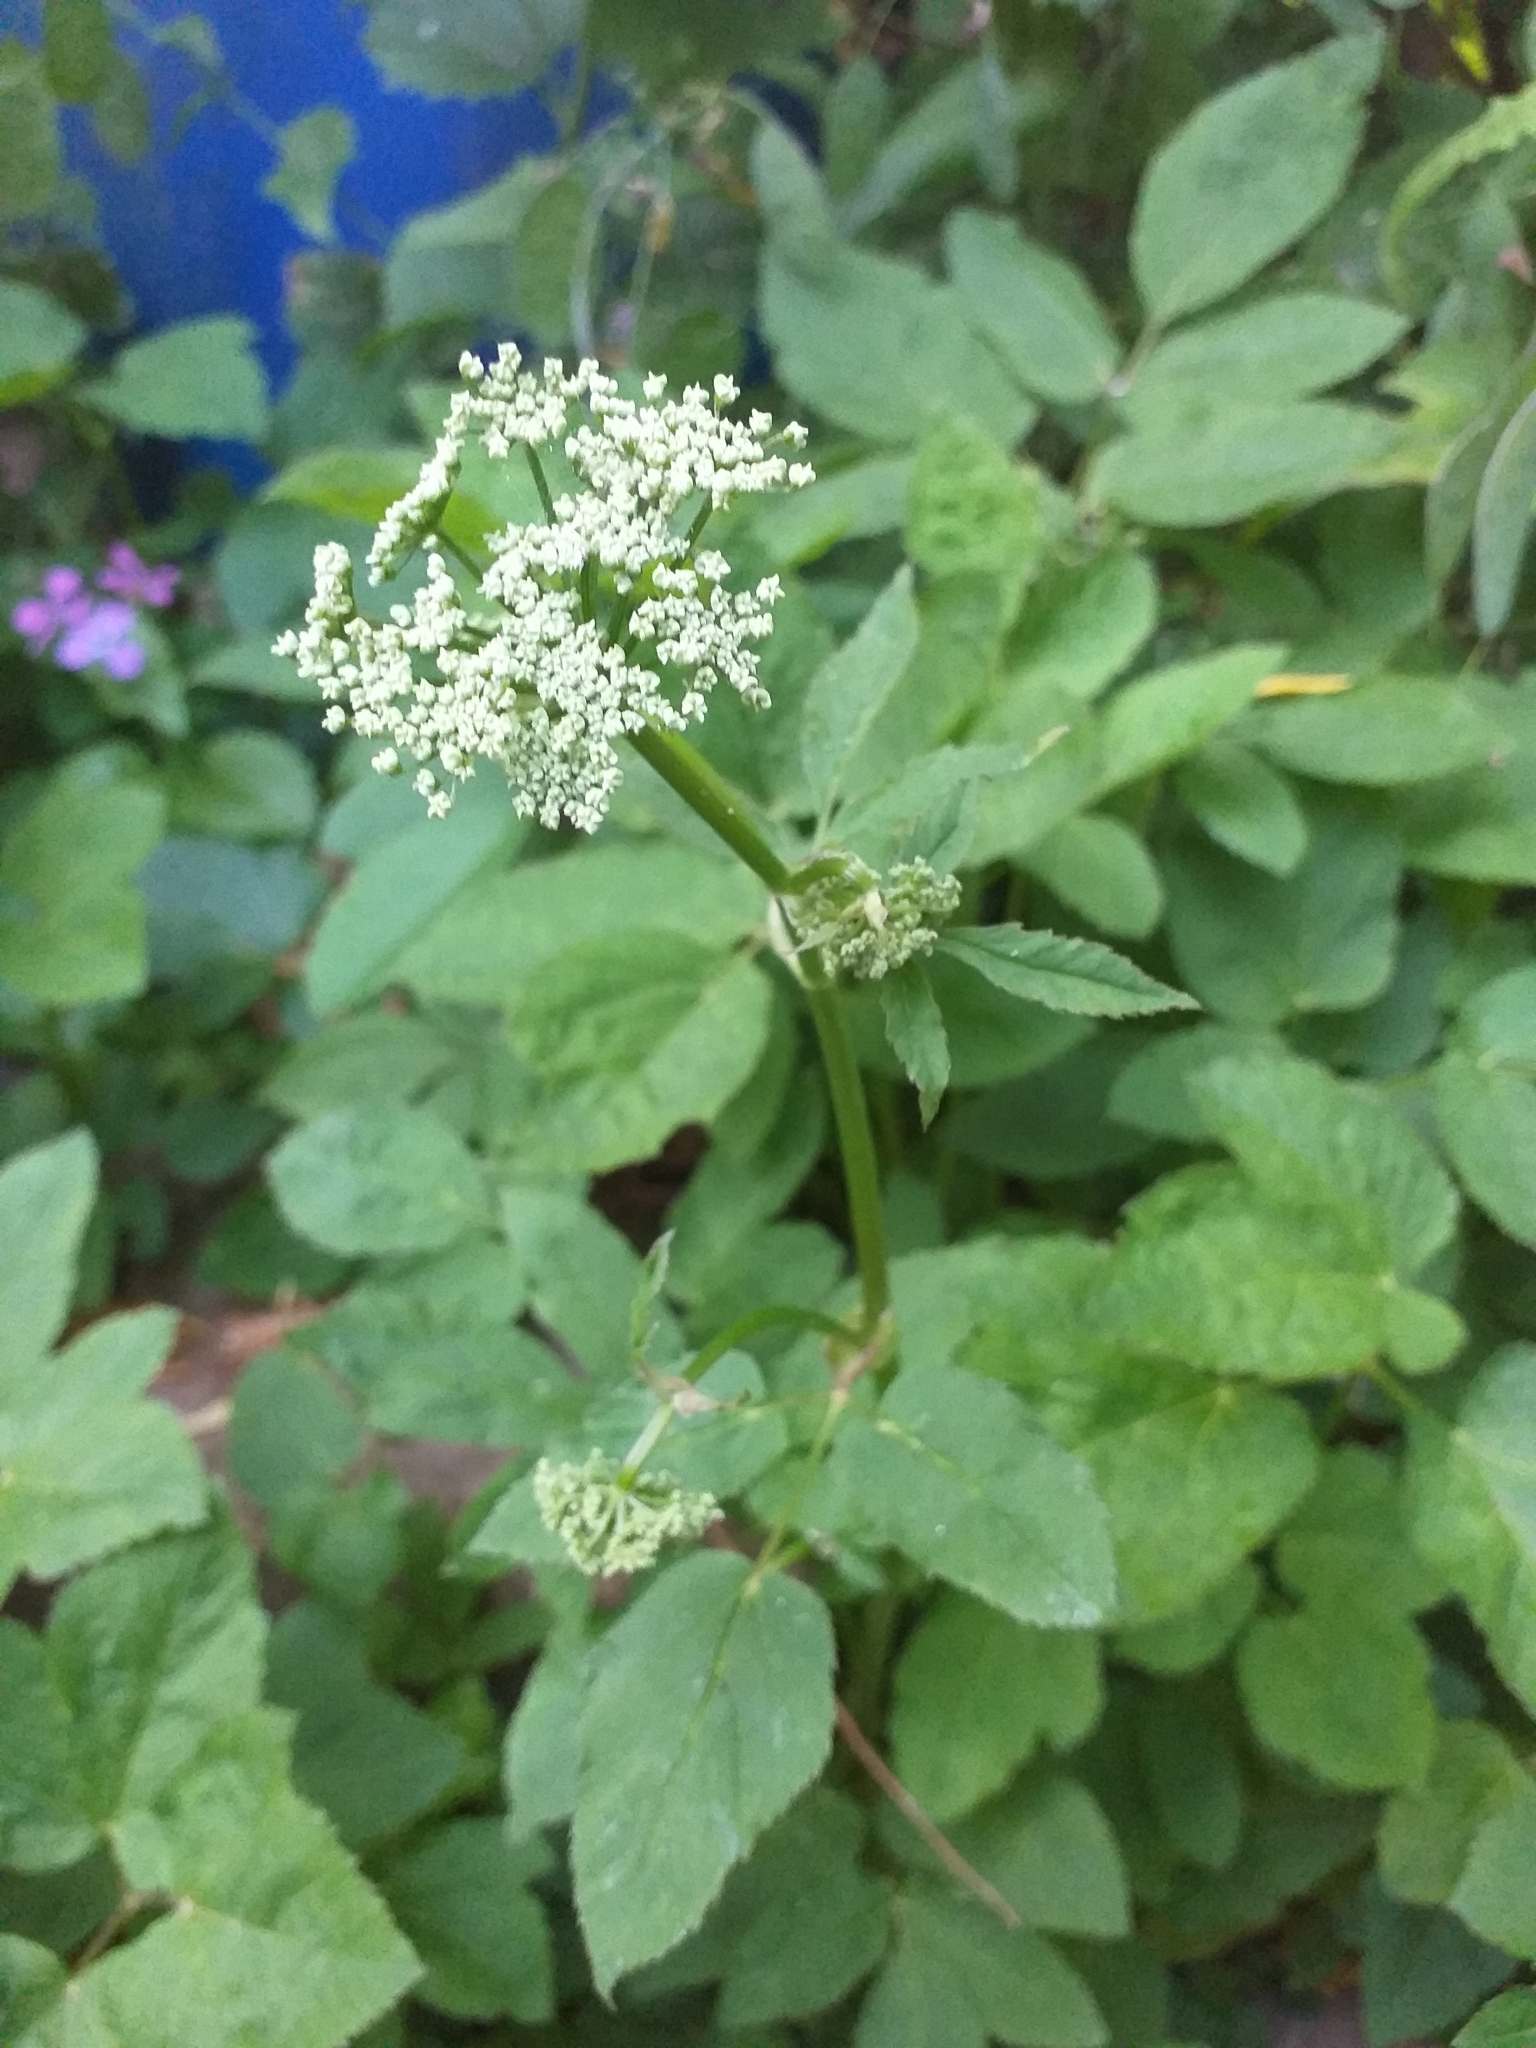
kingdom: Plantae
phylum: Tracheophyta
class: Magnoliopsida
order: Apiales
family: Apiaceae
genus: Aegopodium
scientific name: Aegopodium podagraria
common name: Ground-elder
